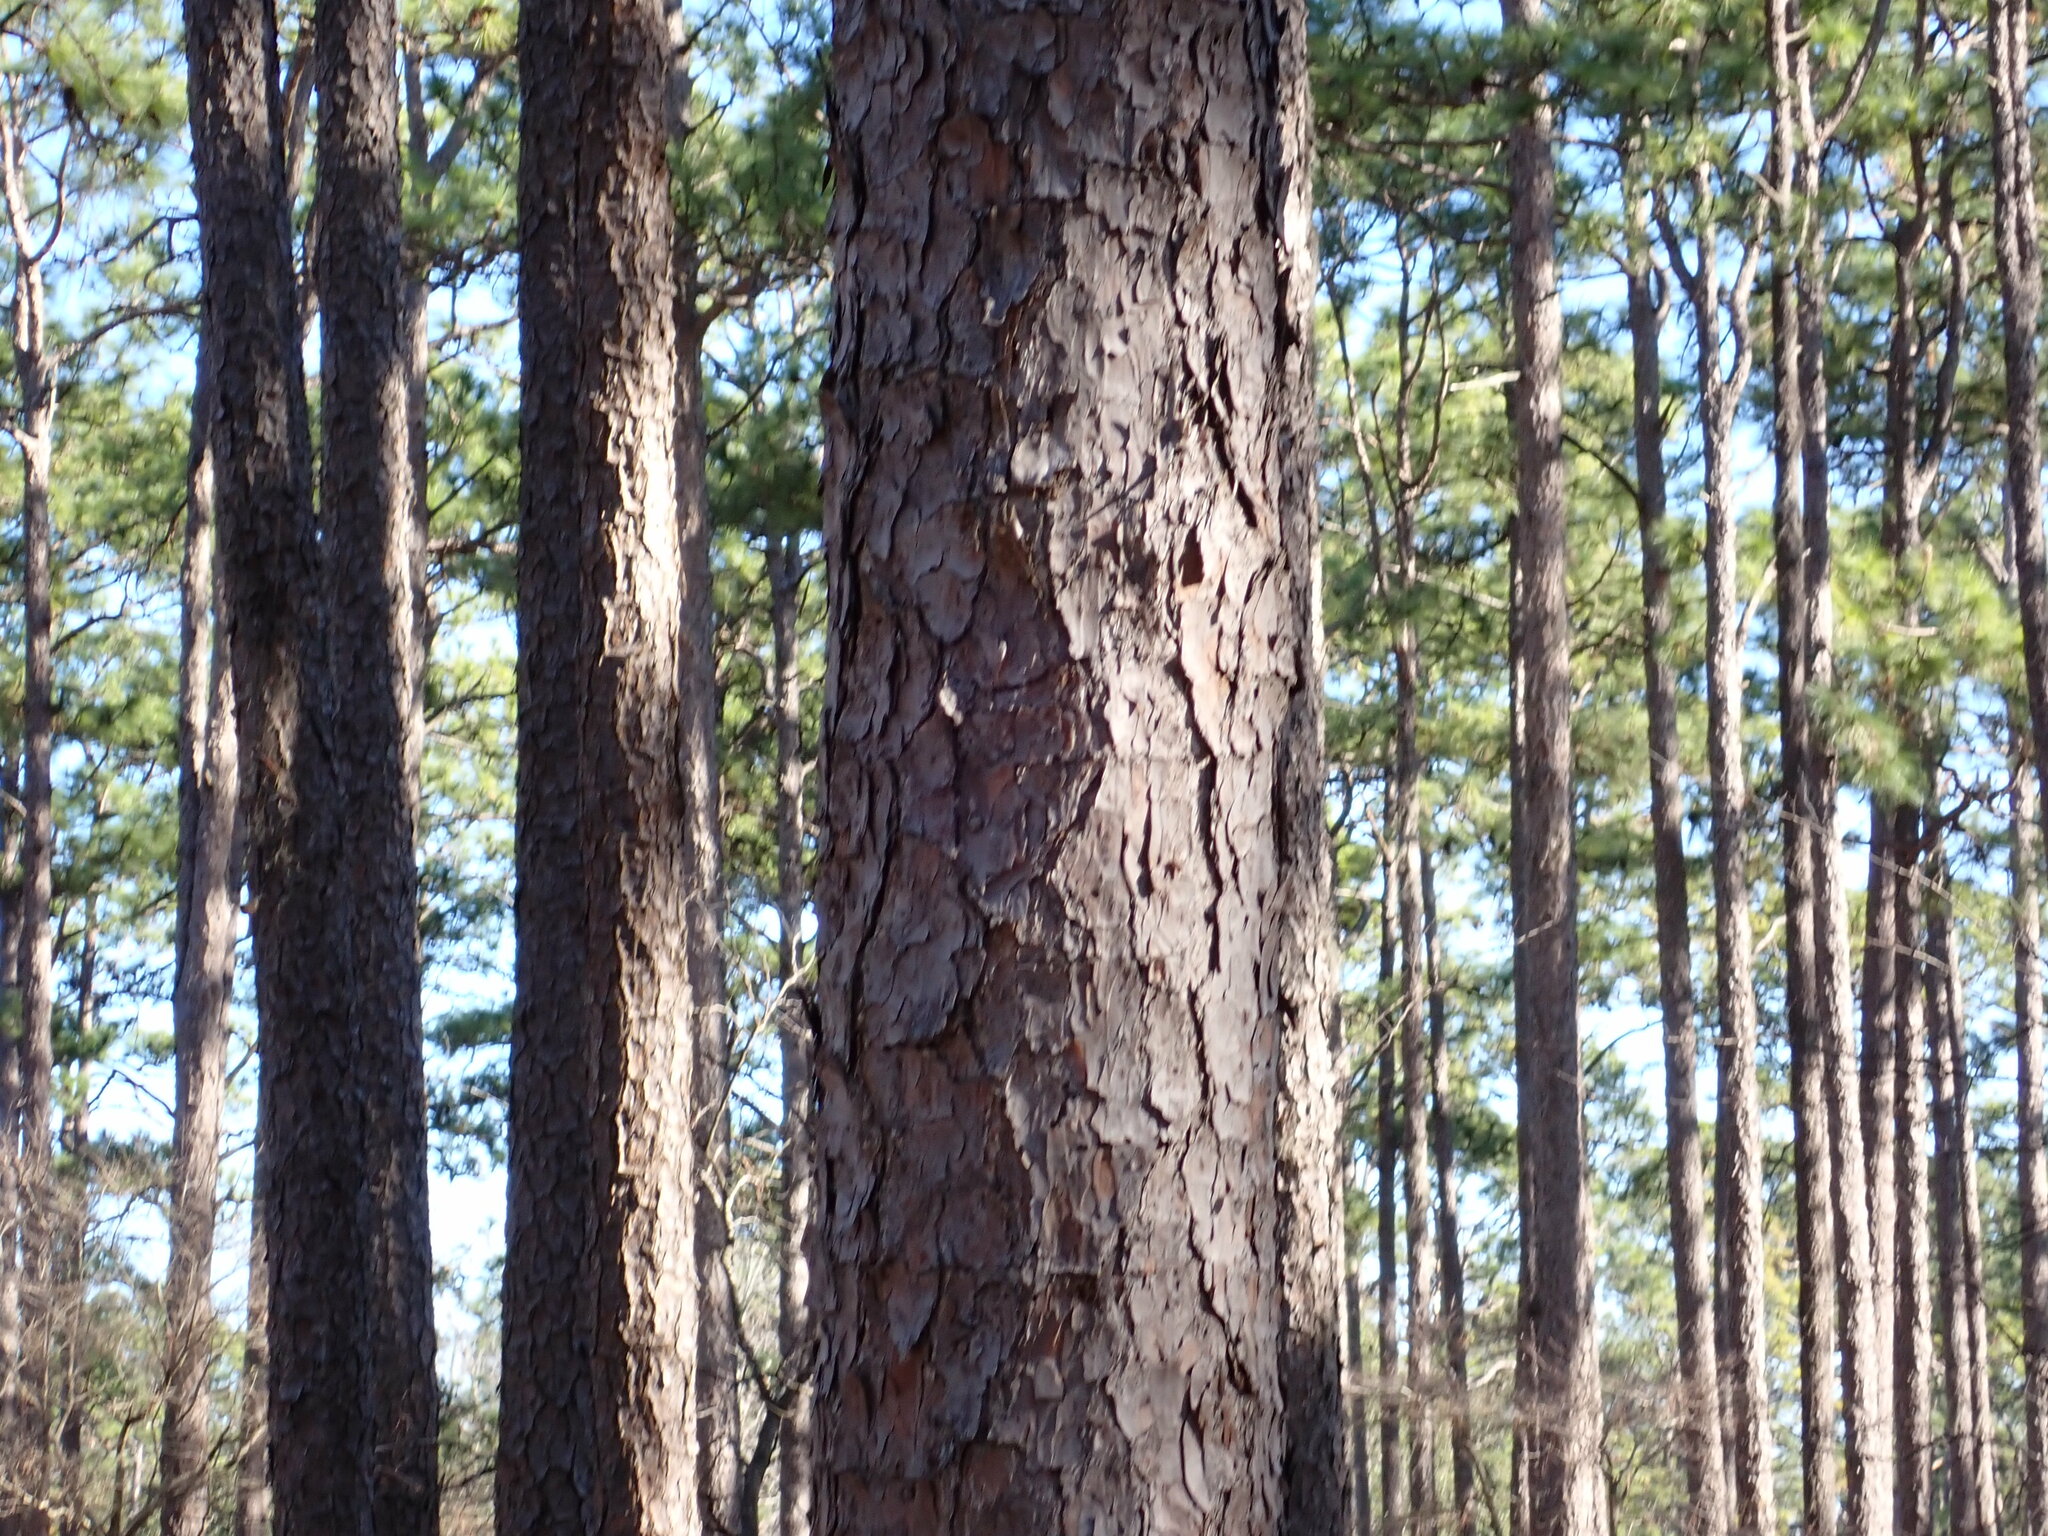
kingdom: Plantae
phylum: Tracheophyta
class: Pinopsida
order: Pinales
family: Pinaceae
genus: Pinus
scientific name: Pinus palustris
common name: Longleaf pine
